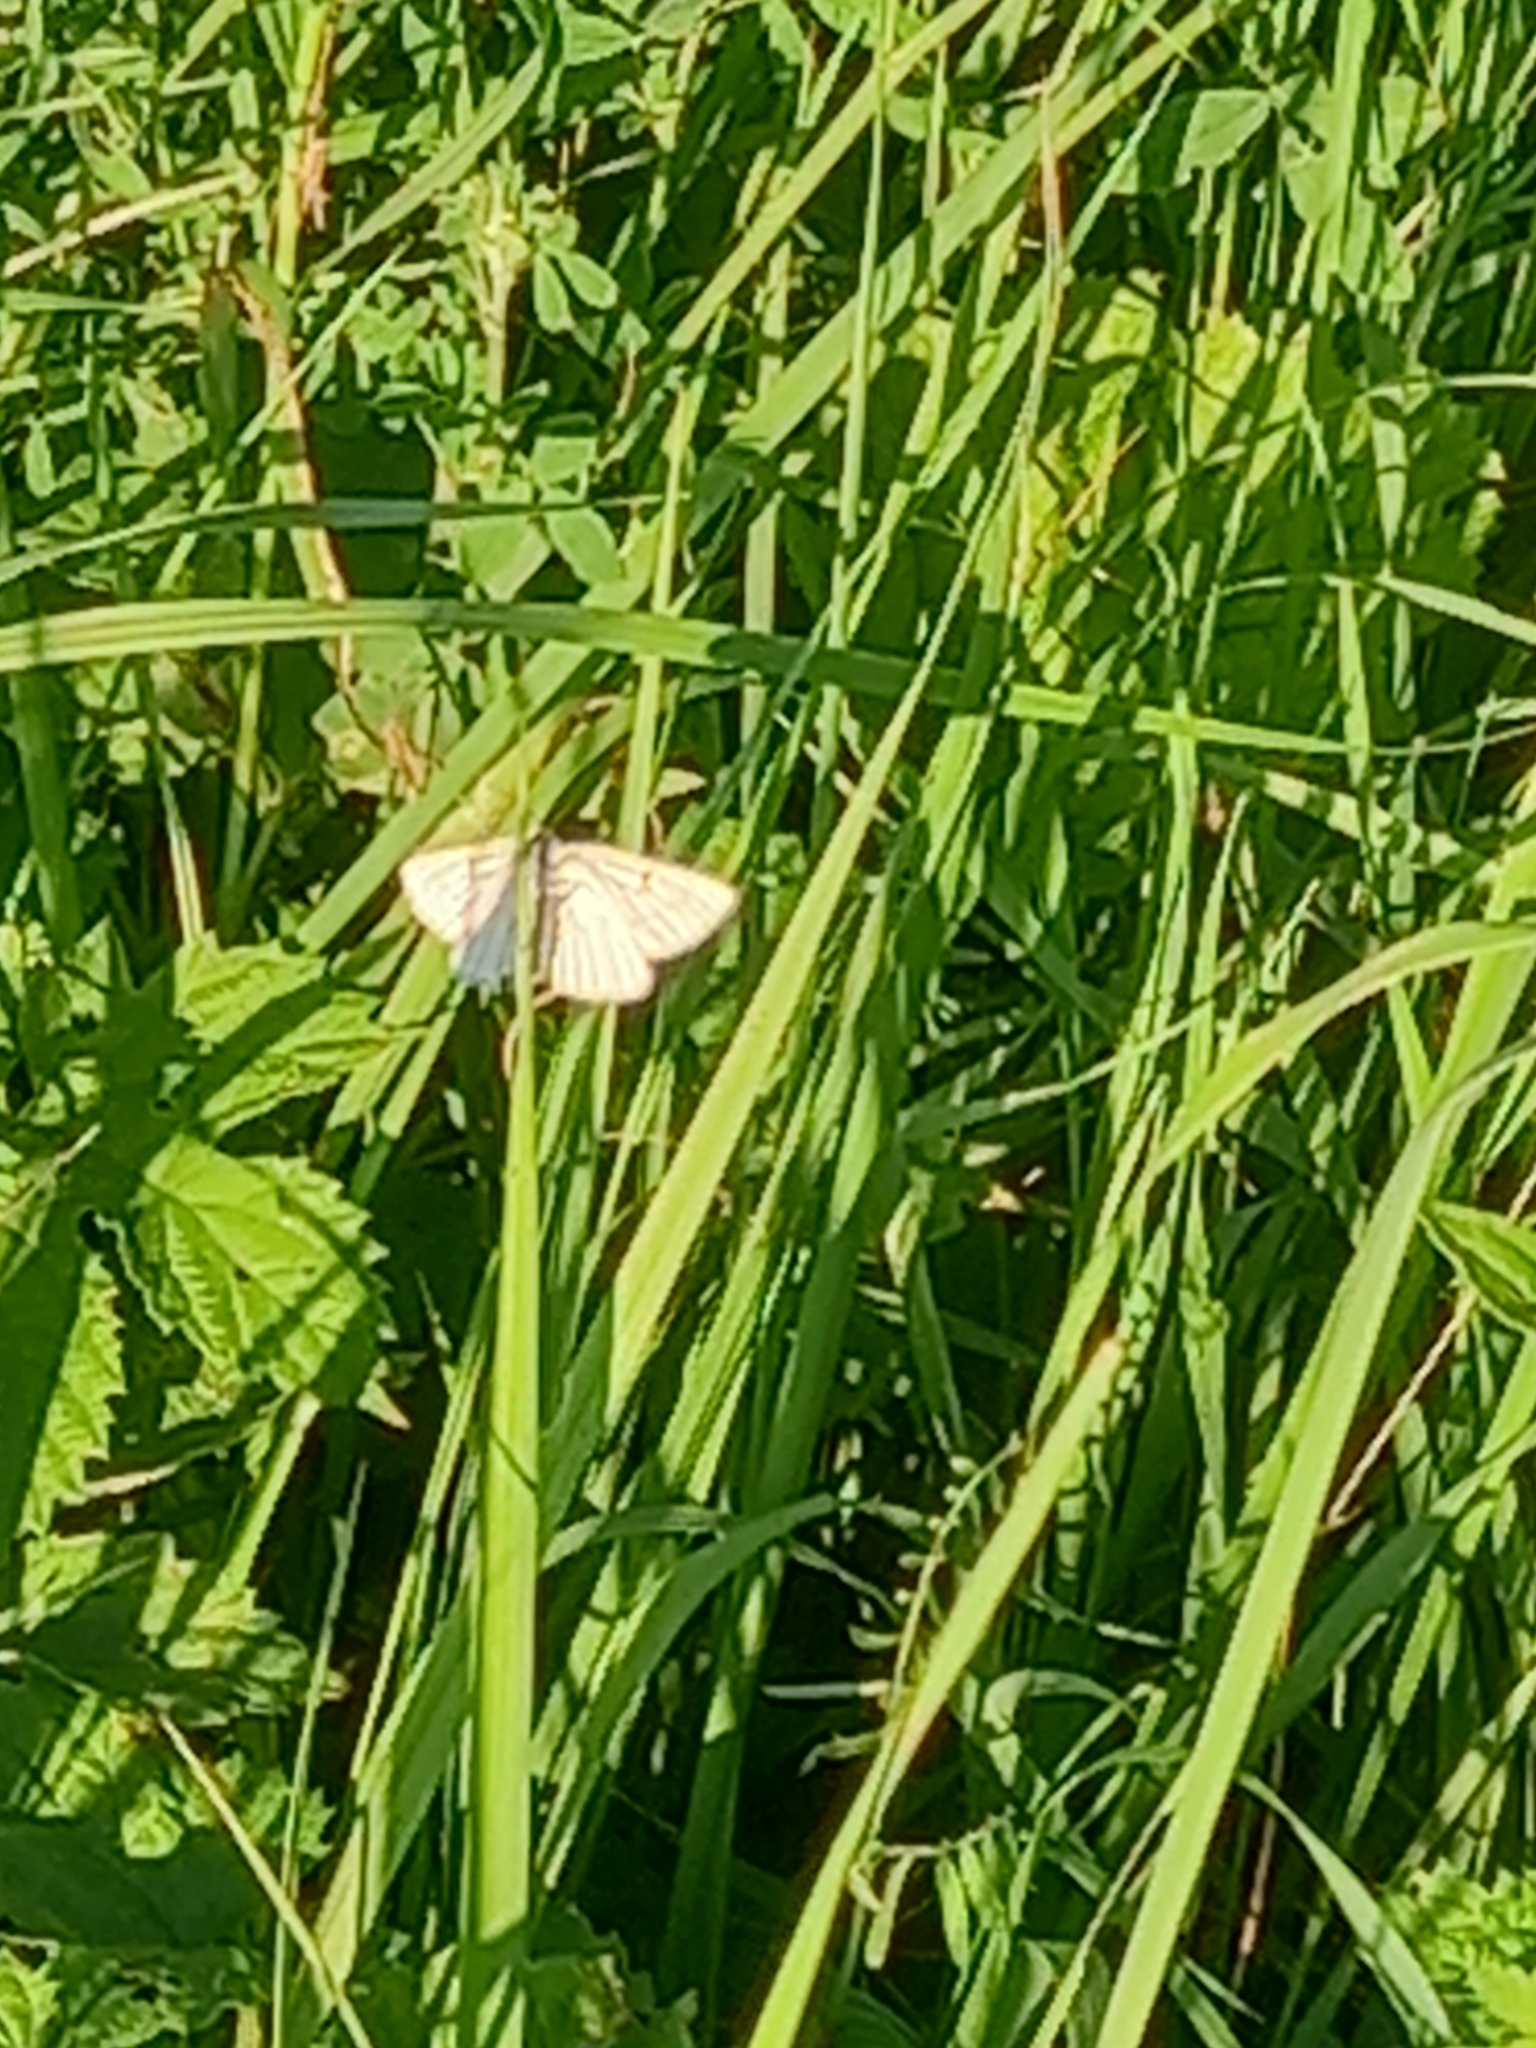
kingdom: Animalia
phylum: Arthropoda
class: Insecta
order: Lepidoptera
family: Geometridae
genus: Siona
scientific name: Siona lineata
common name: Black-veined moth
